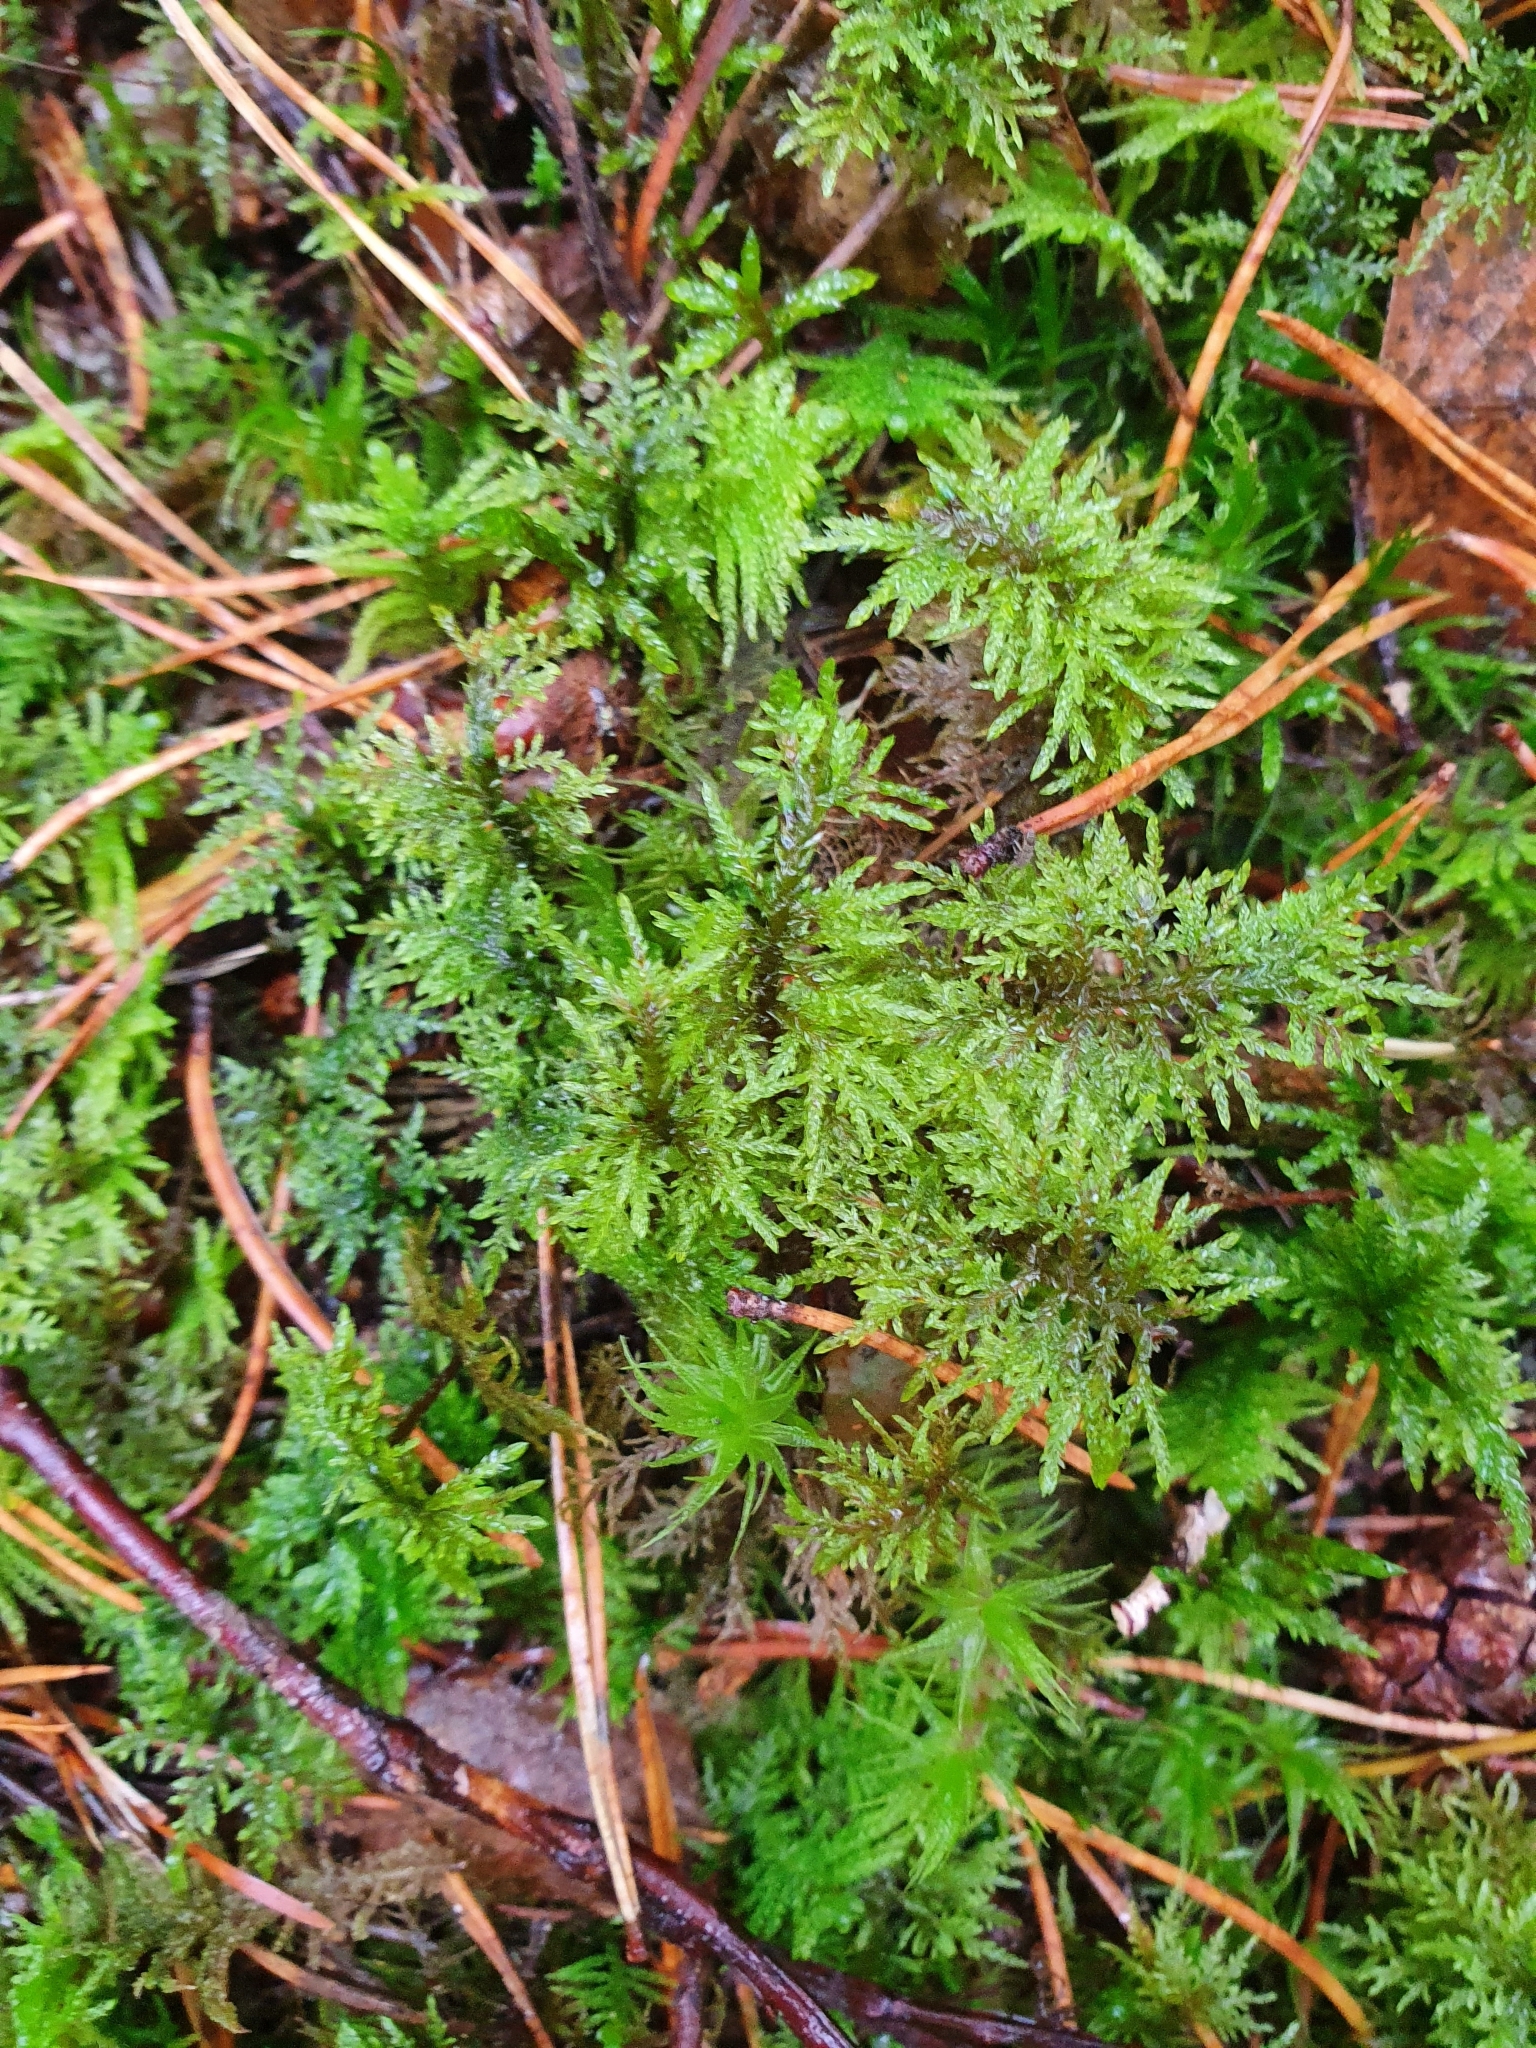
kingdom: Plantae
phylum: Bryophyta
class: Bryopsida
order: Hypnales
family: Hylocomiaceae
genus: Hylocomium
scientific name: Hylocomium splendens
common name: Stairstep moss
